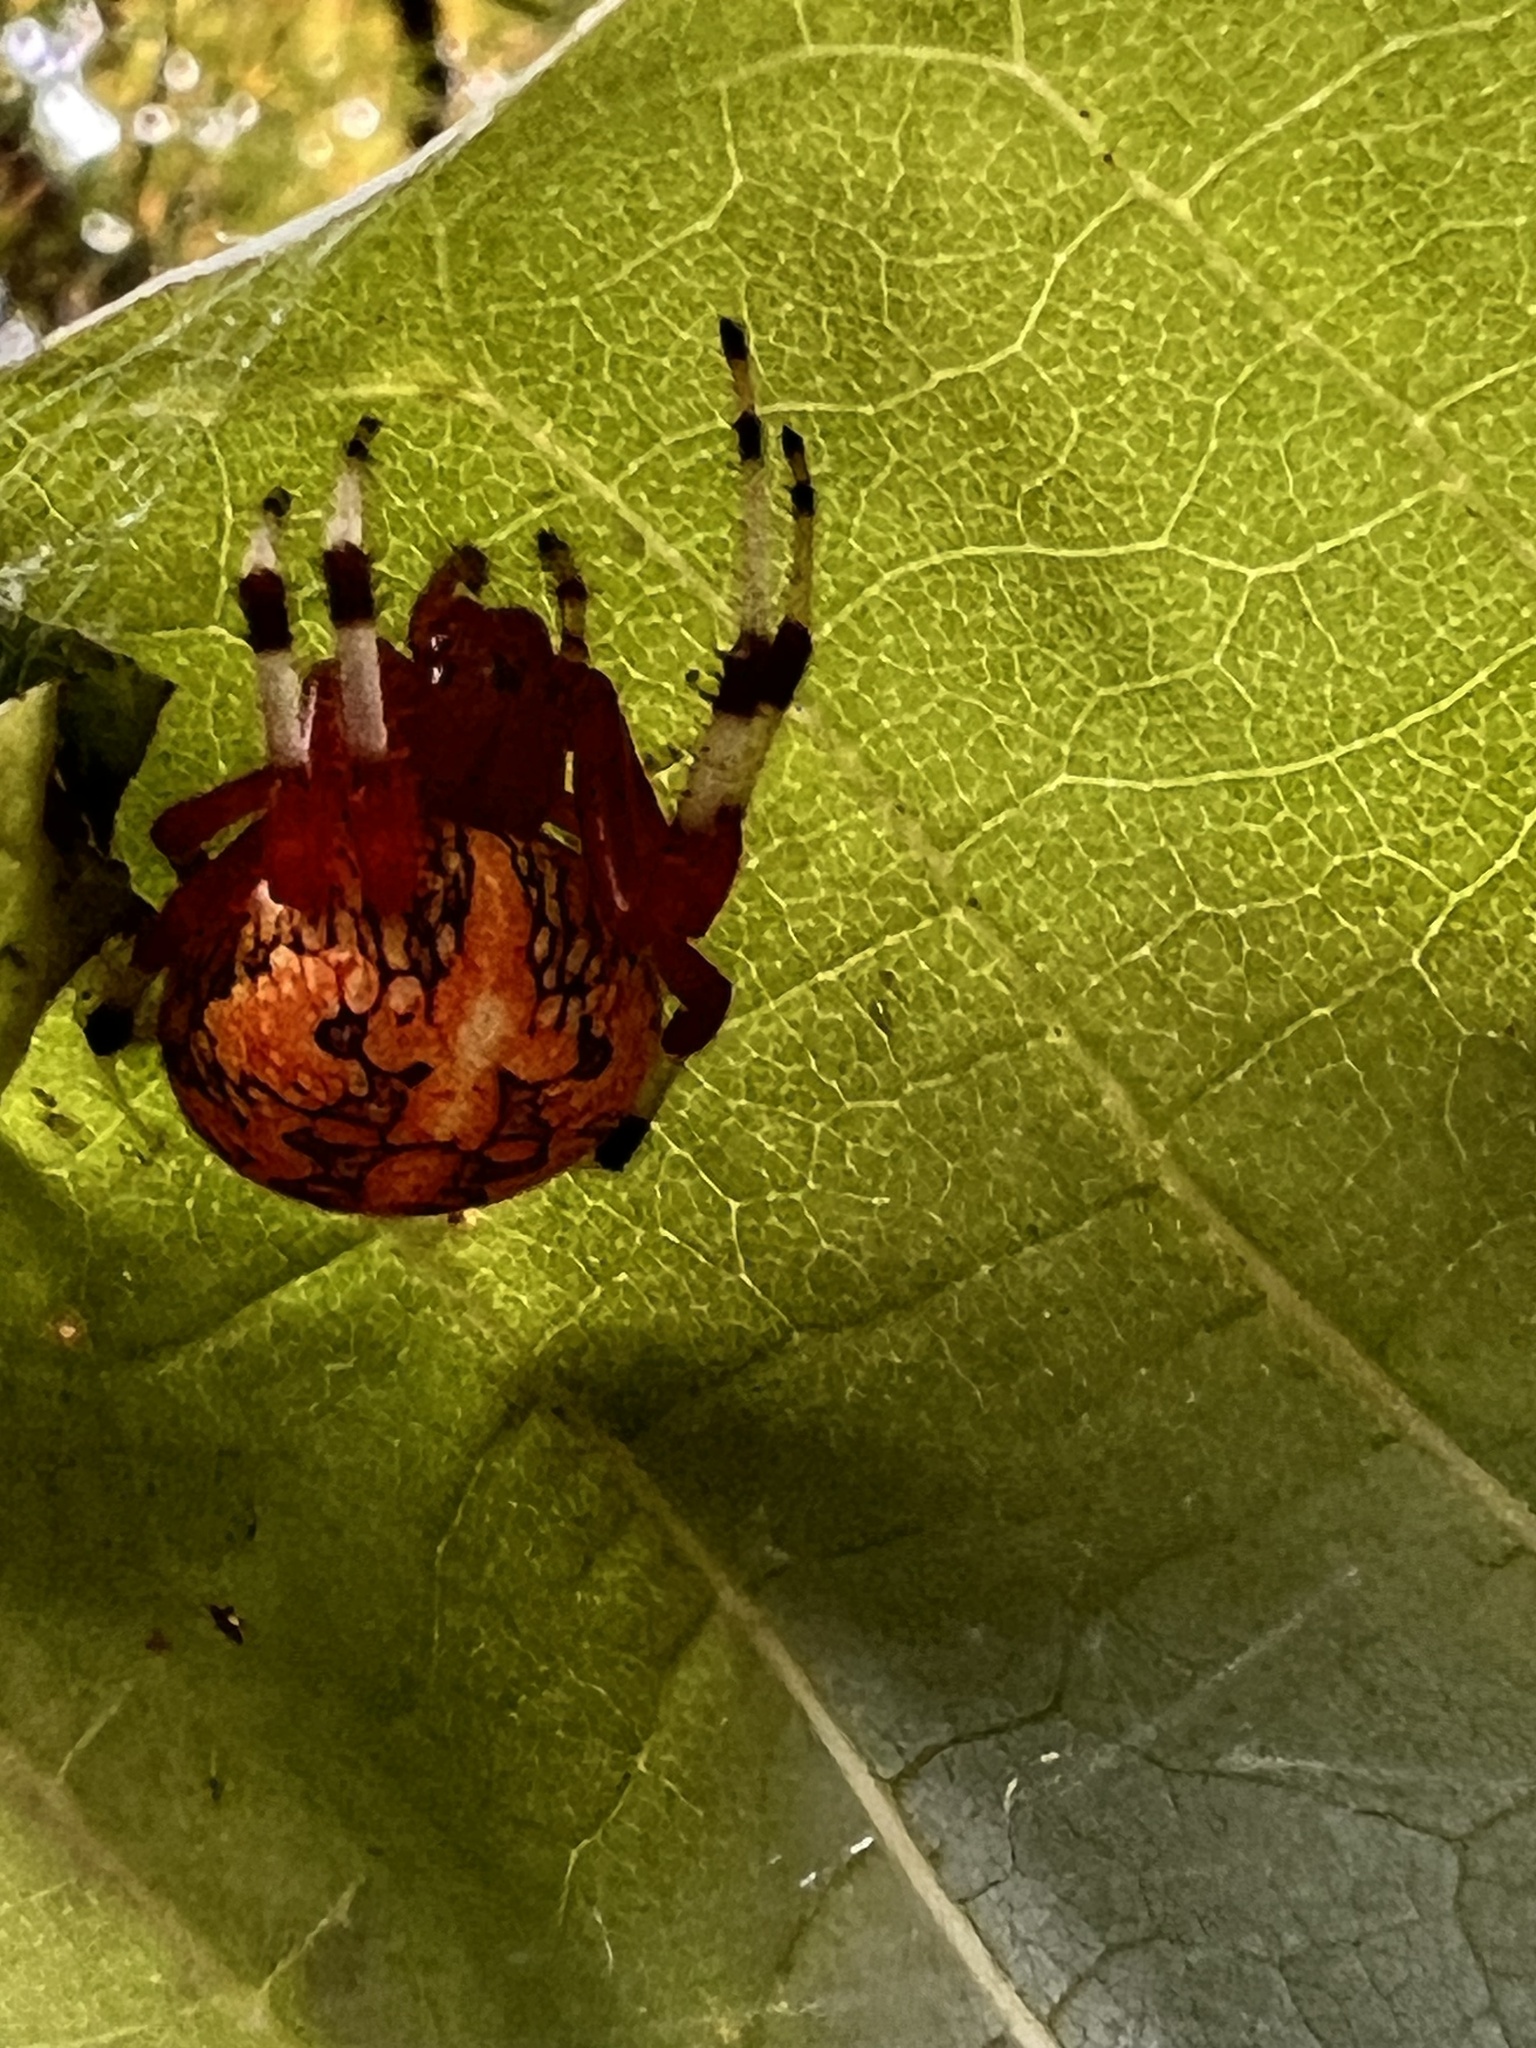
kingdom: Animalia
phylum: Arthropoda
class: Arachnida
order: Araneae
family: Araneidae
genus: Araneus
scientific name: Araneus marmoreus
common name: Marbled orbweaver
